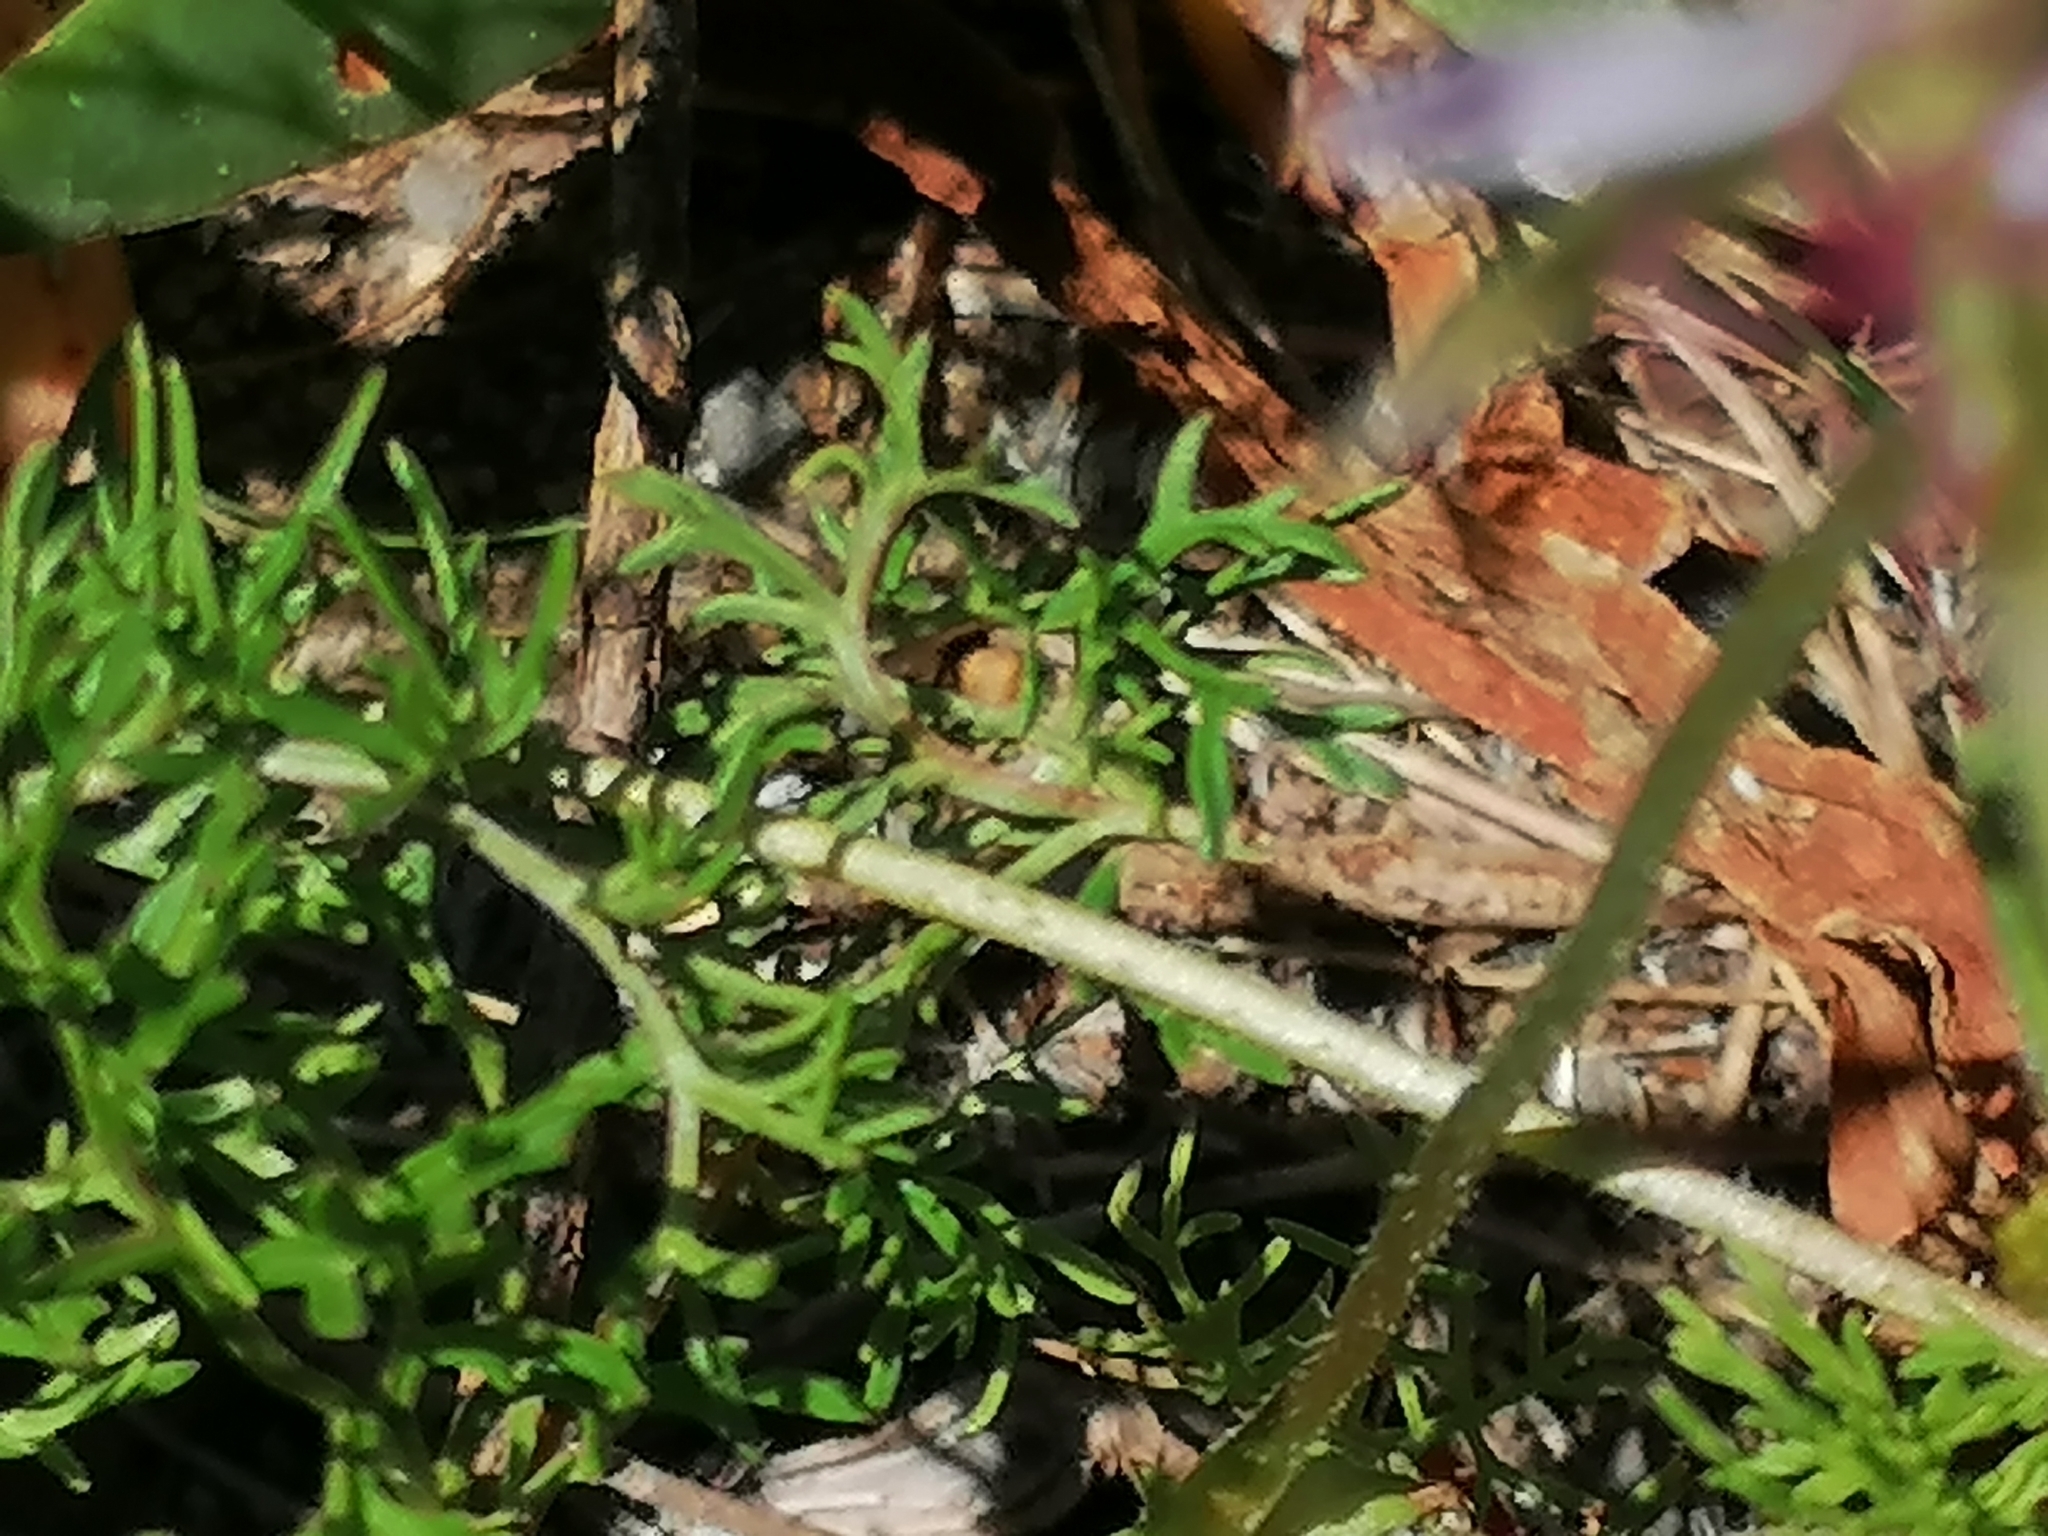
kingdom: Plantae
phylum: Tracheophyta
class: Magnoliopsida
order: Geraniales
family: Geraniaceae
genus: Pelargonium
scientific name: Pelargonium myrrhifolium
